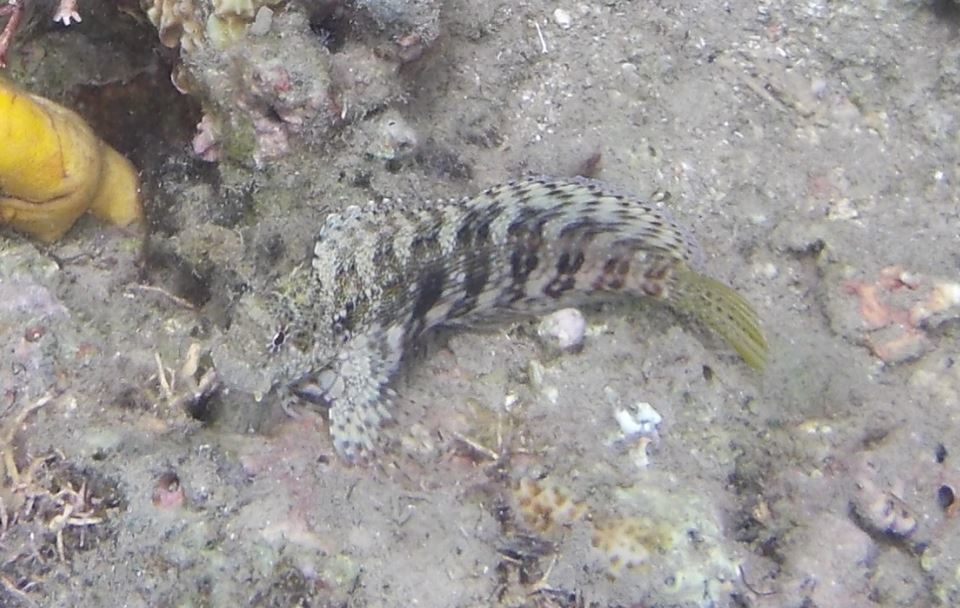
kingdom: Animalia
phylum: Chordata
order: Perciformes
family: Blenniidae
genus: Salarias
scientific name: Salarias fasciatus
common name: Jewelled blenny
